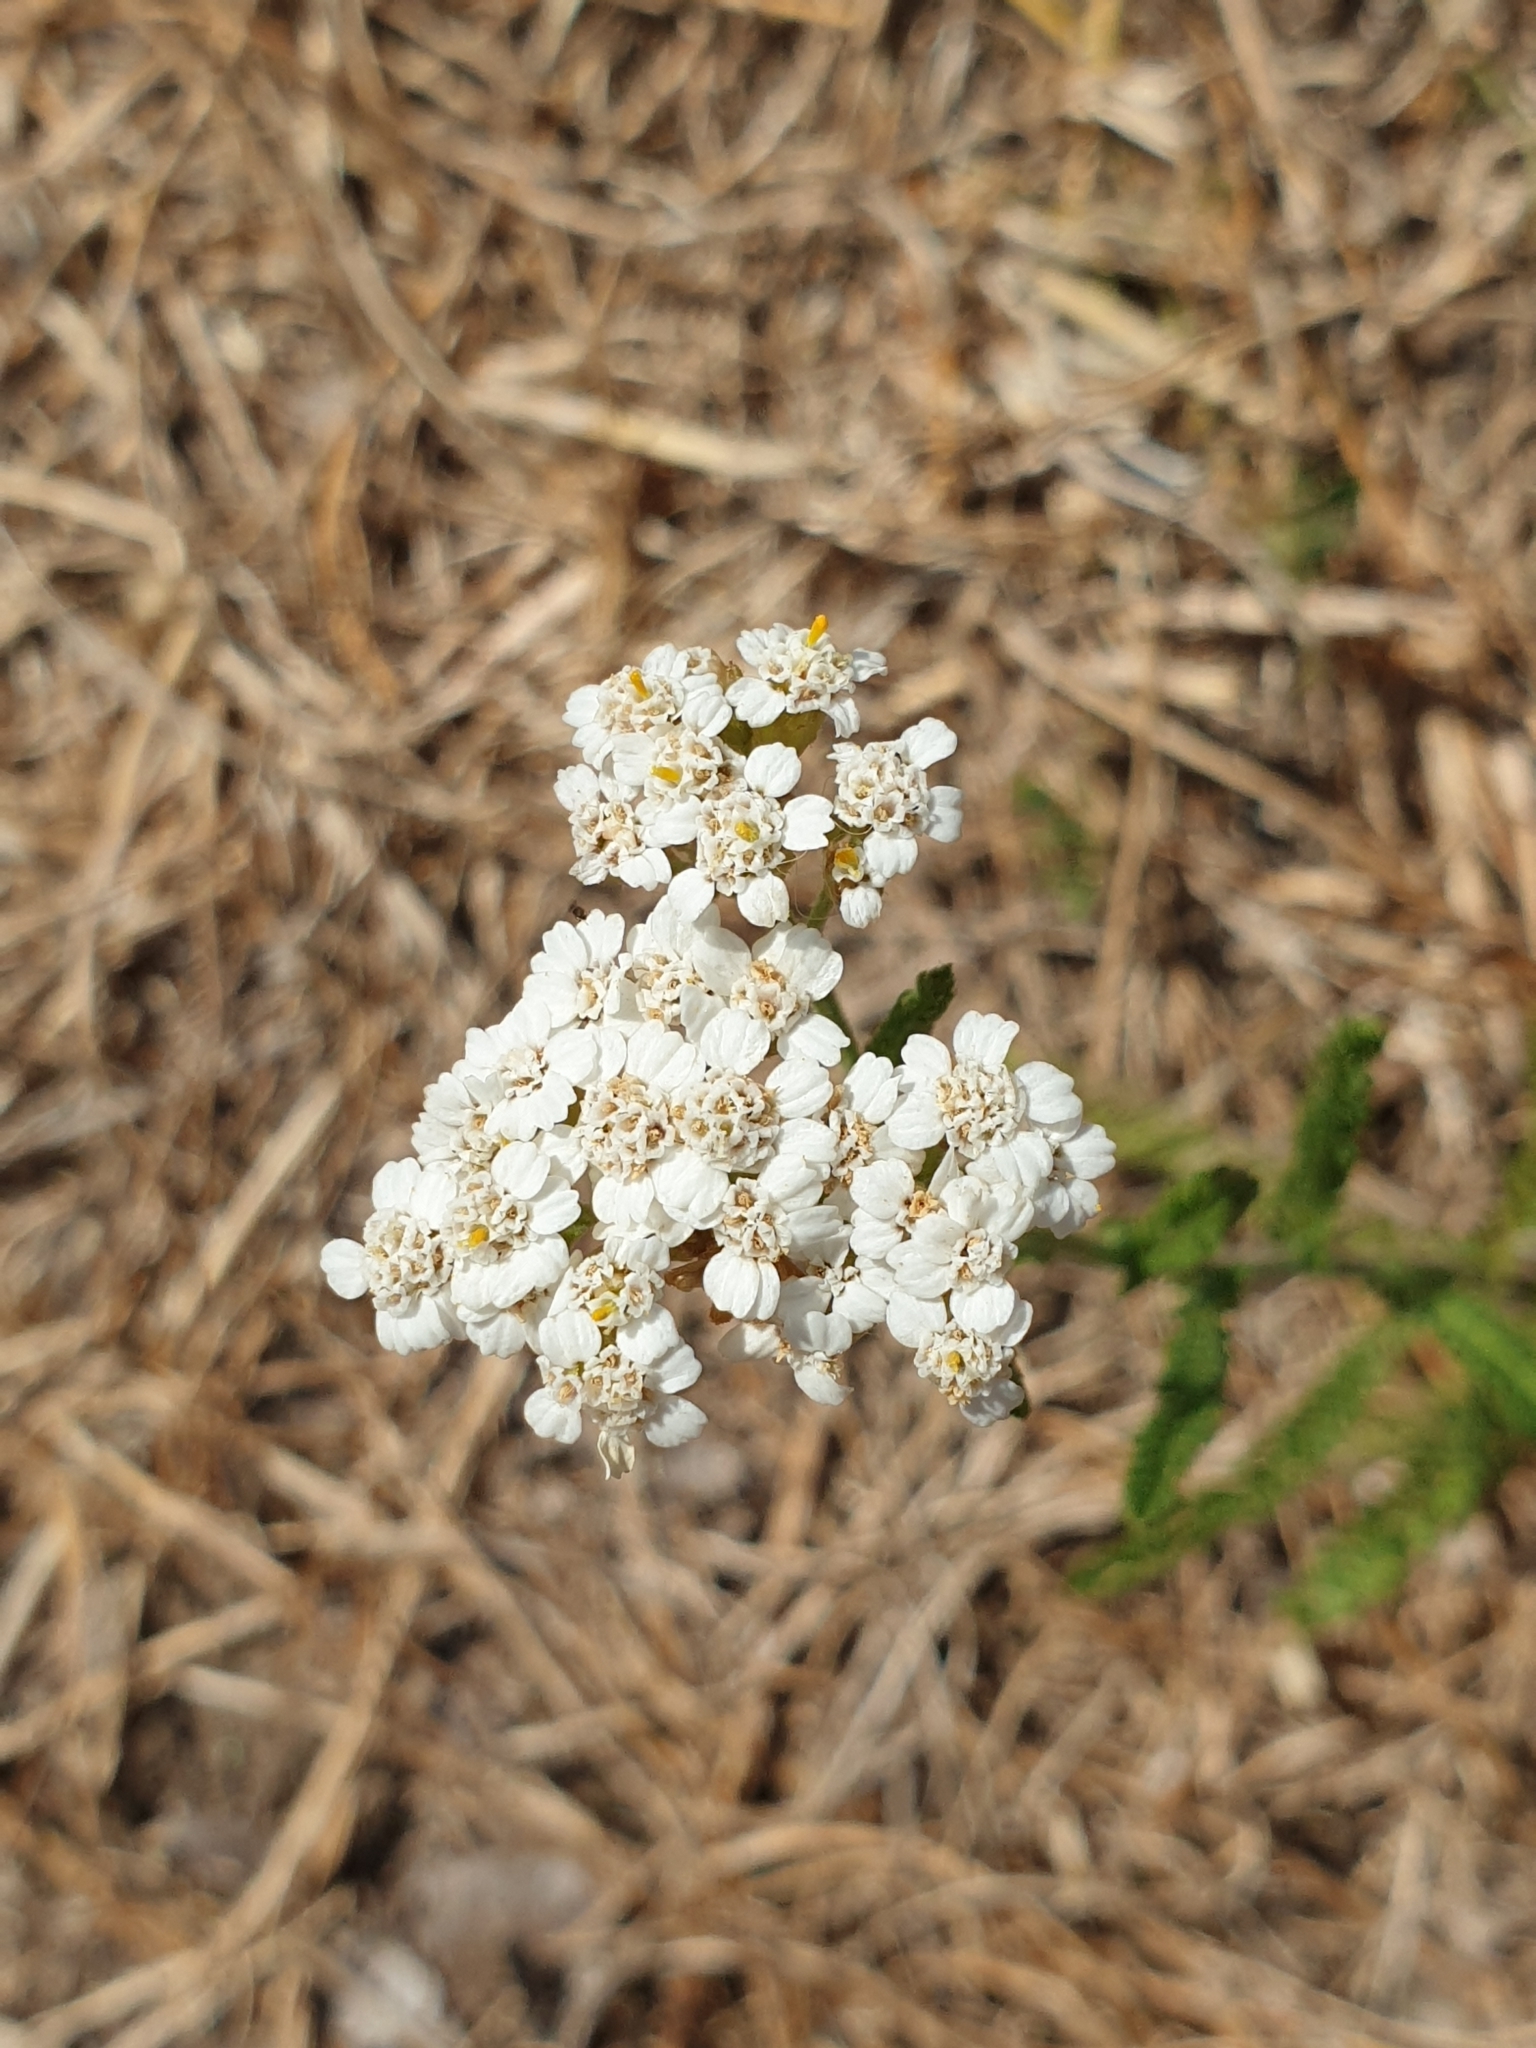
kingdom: Plantae
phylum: Tracheophyta
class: Magnoliopsida
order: Asterales
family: Asteraceae
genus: Achillea
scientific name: Achillea millefolium
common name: Yarrow
